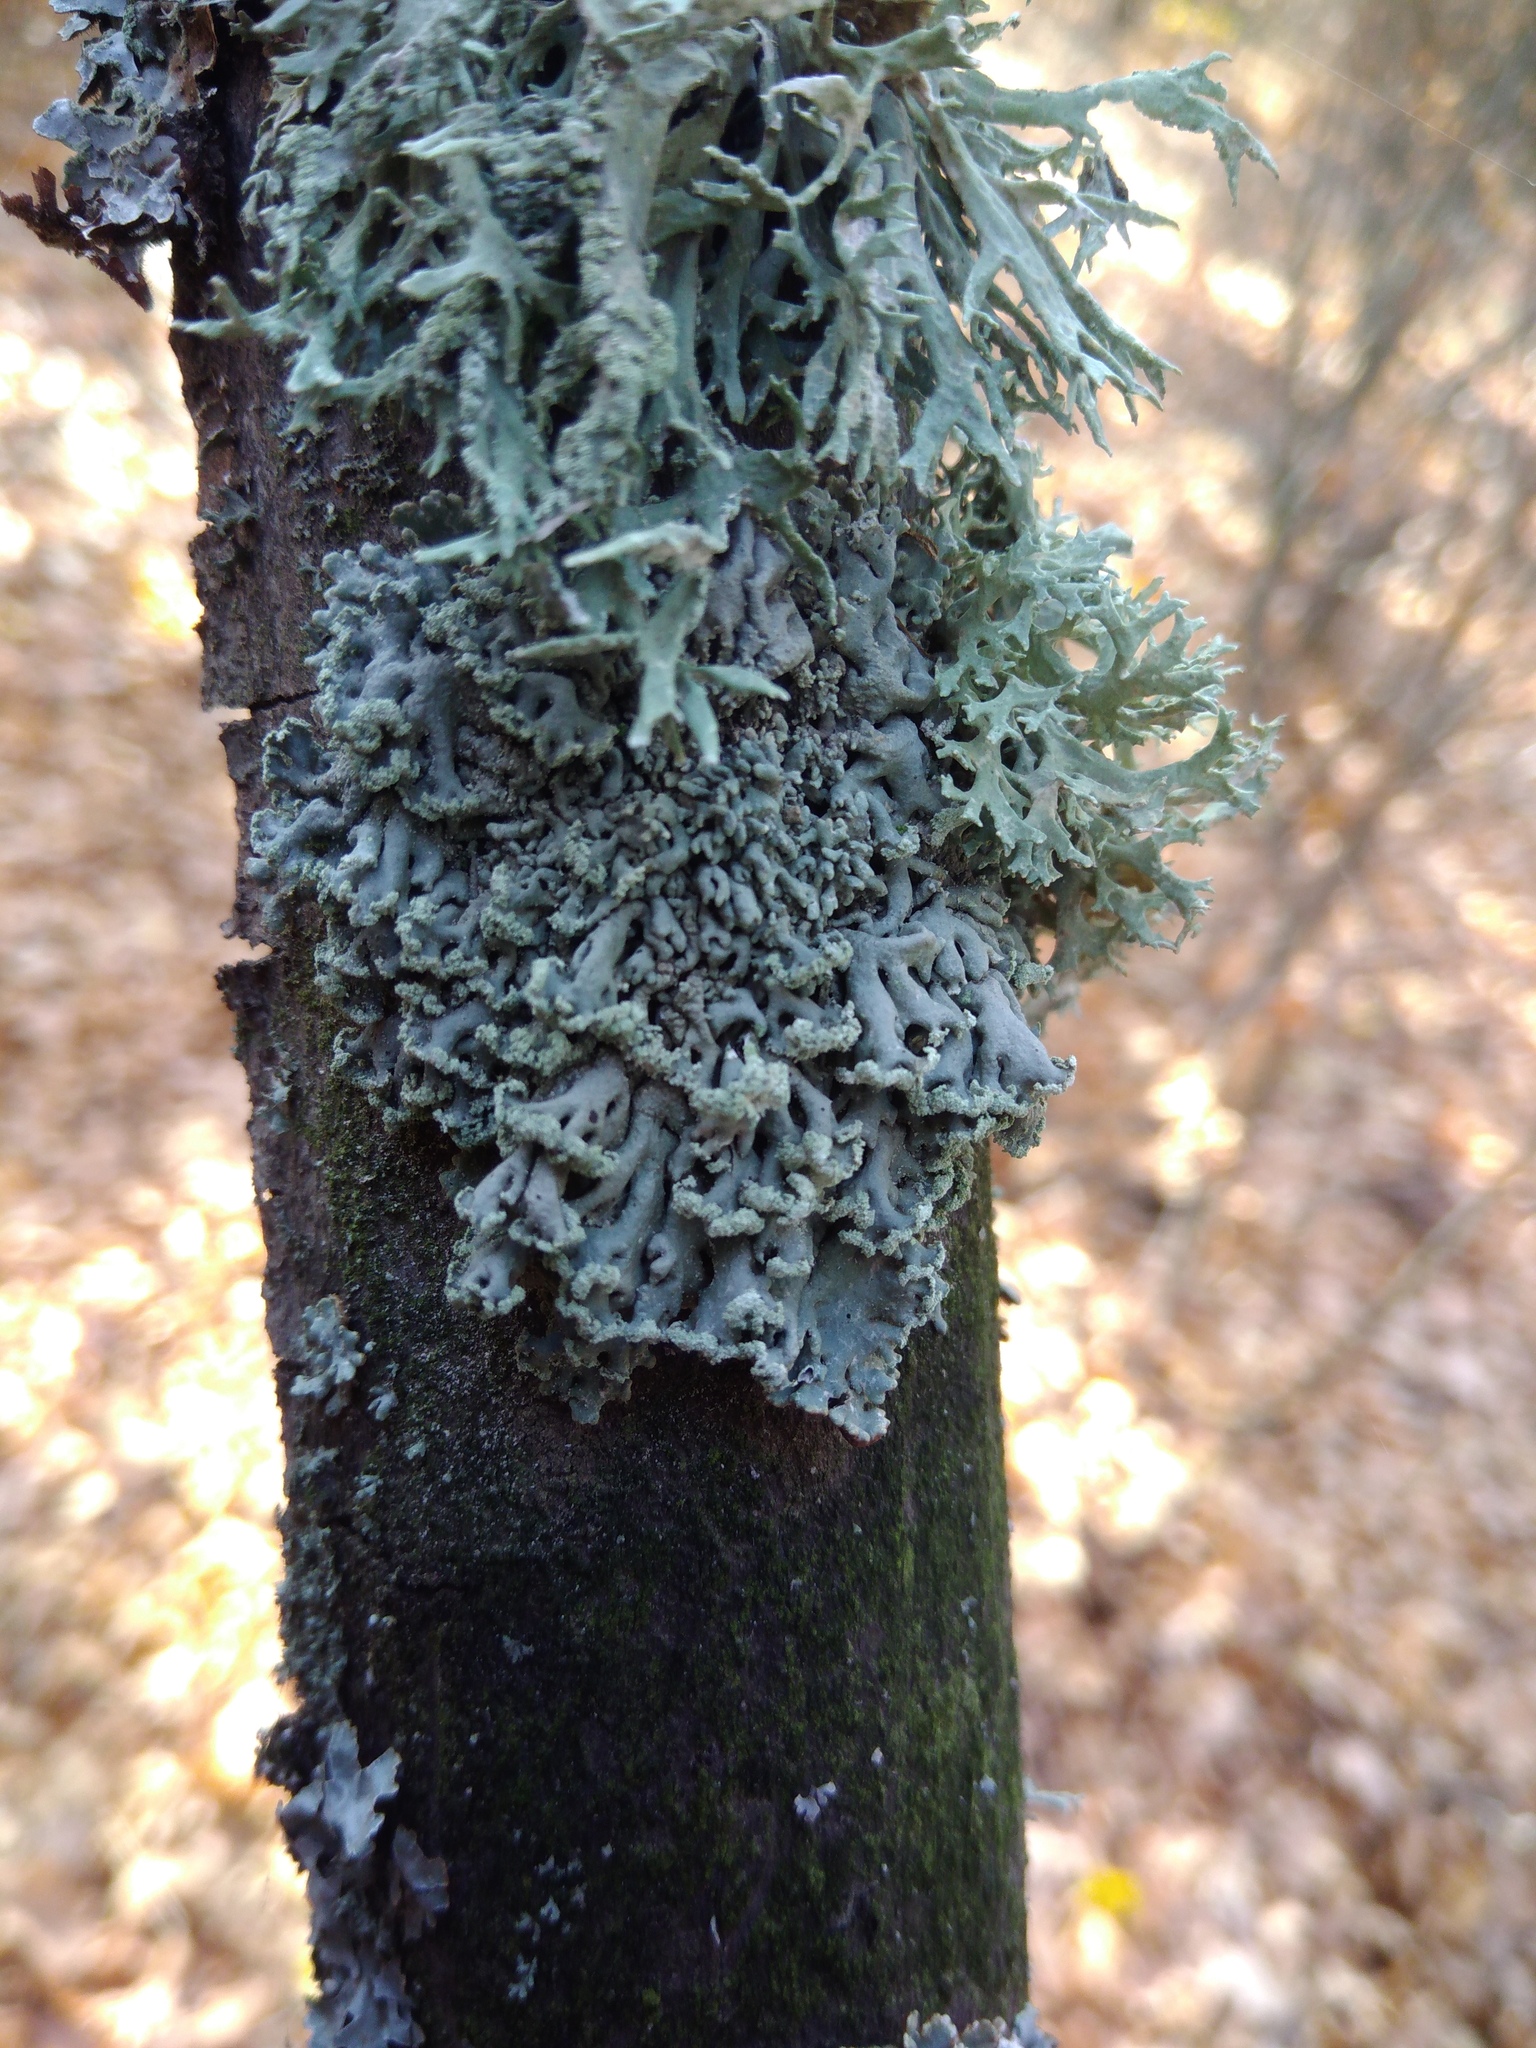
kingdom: Fungi
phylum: Ascomycota
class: Lecanoromycetes
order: Lecanorales
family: Parmeliaceae
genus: Hypogymnia
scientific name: Hypogymnia physodes
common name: Dark crottle
